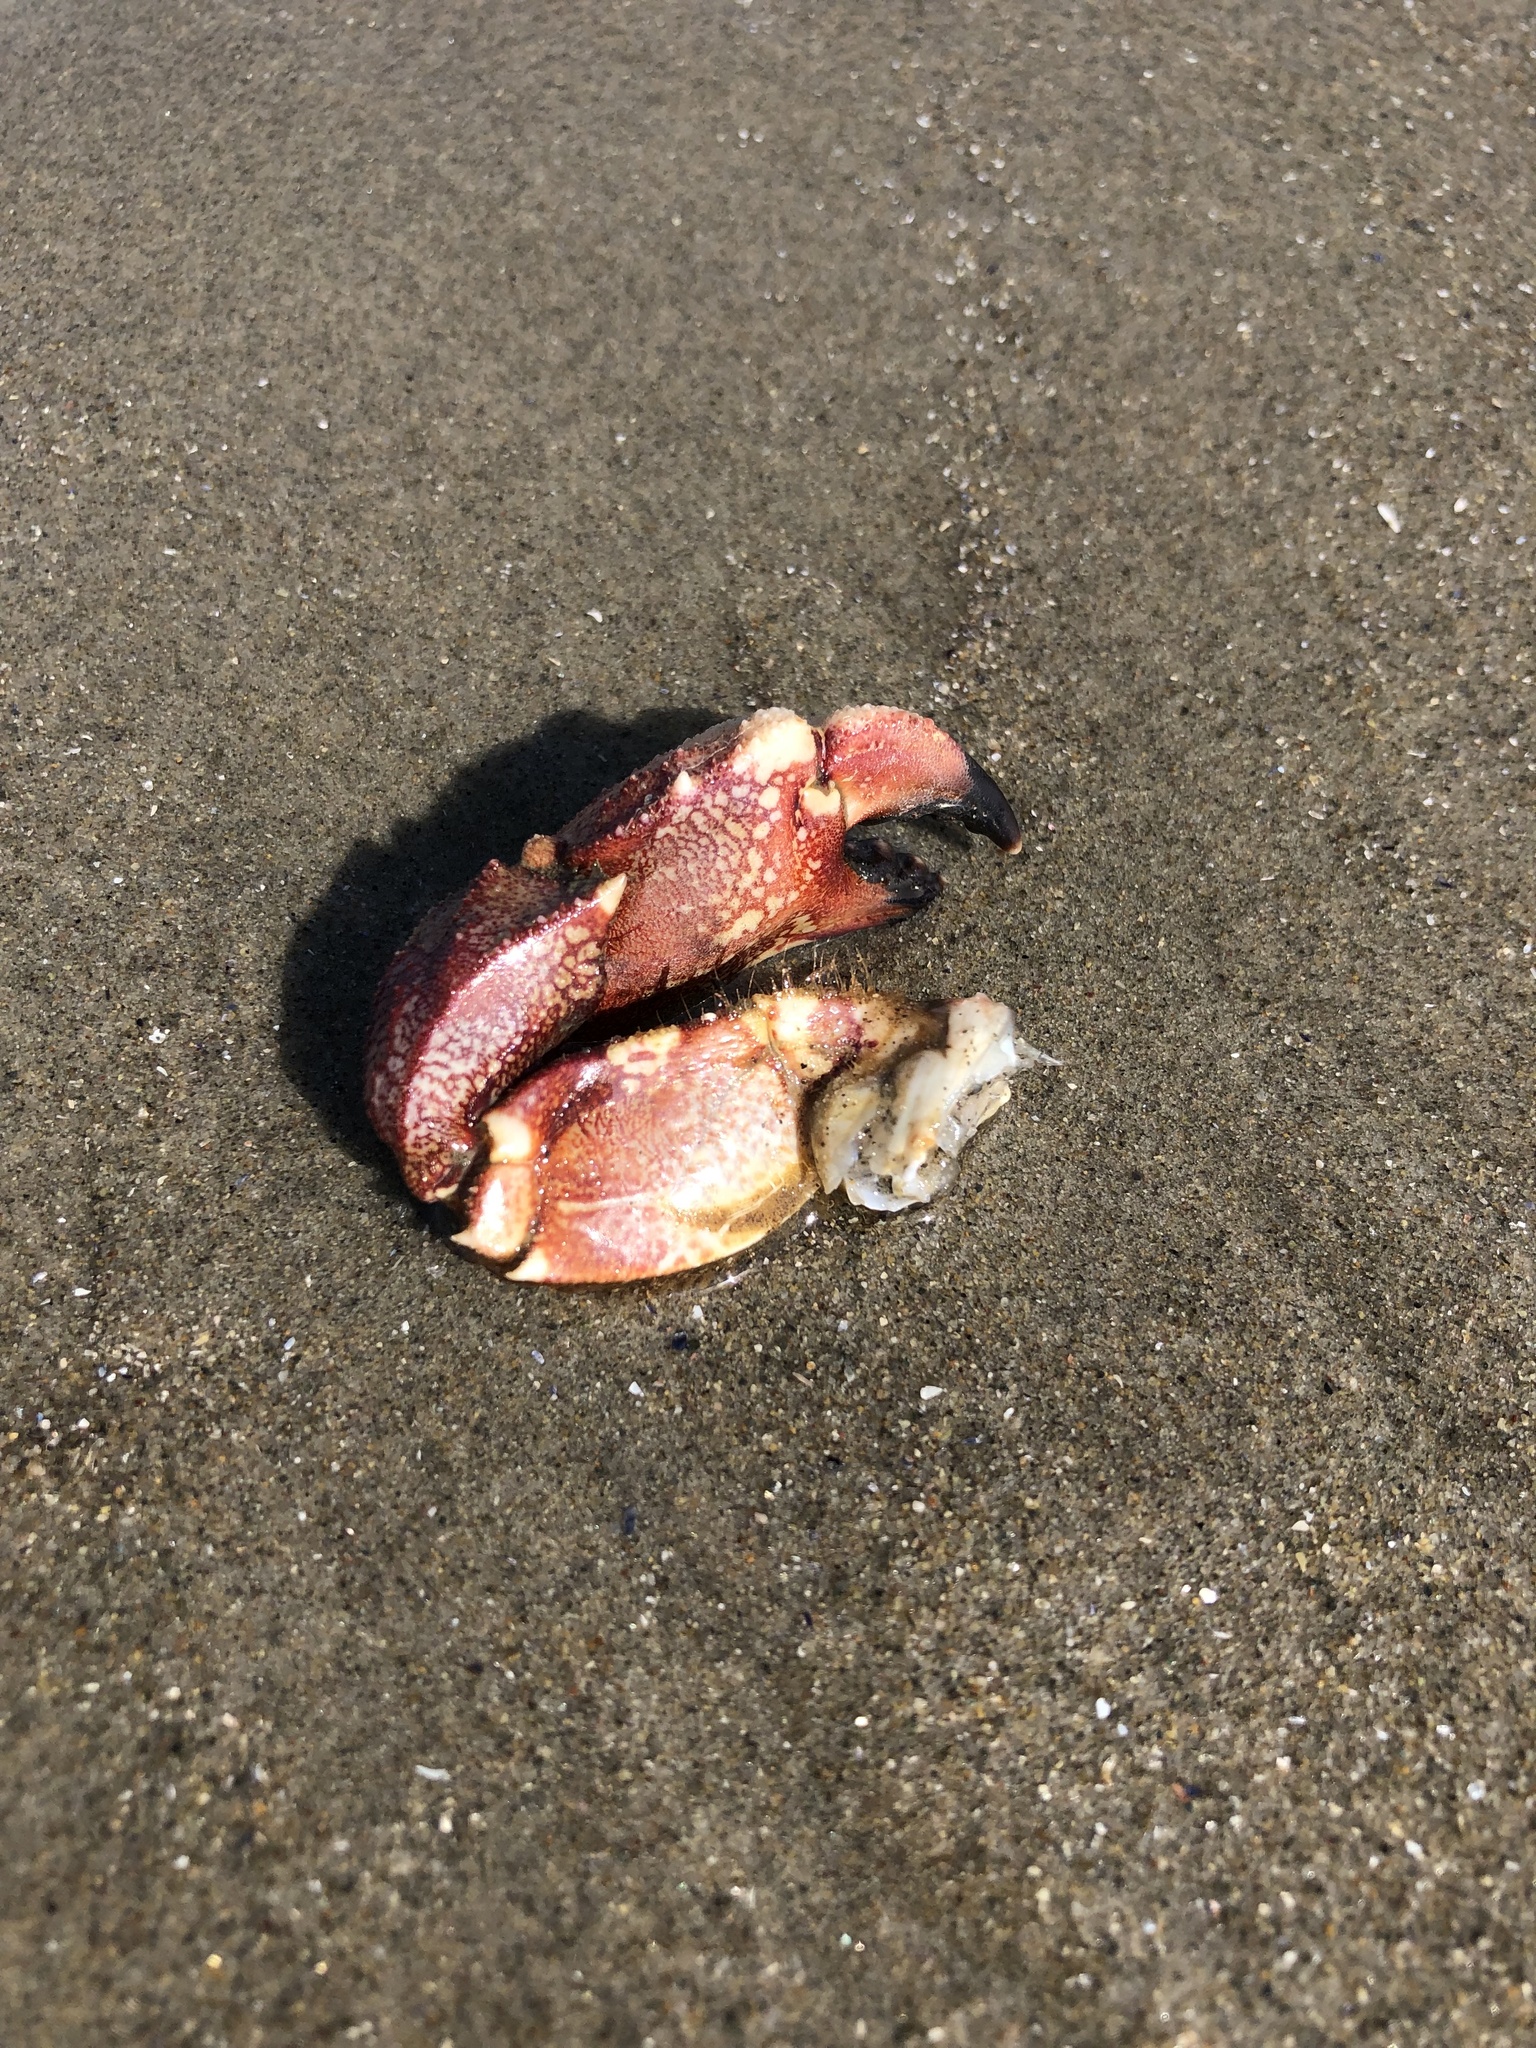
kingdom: Animalia
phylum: Arthropoda
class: Malacostraca
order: Decapoda
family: Cancridae
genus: Cancer
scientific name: Cancer borealis
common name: Jonah crab
